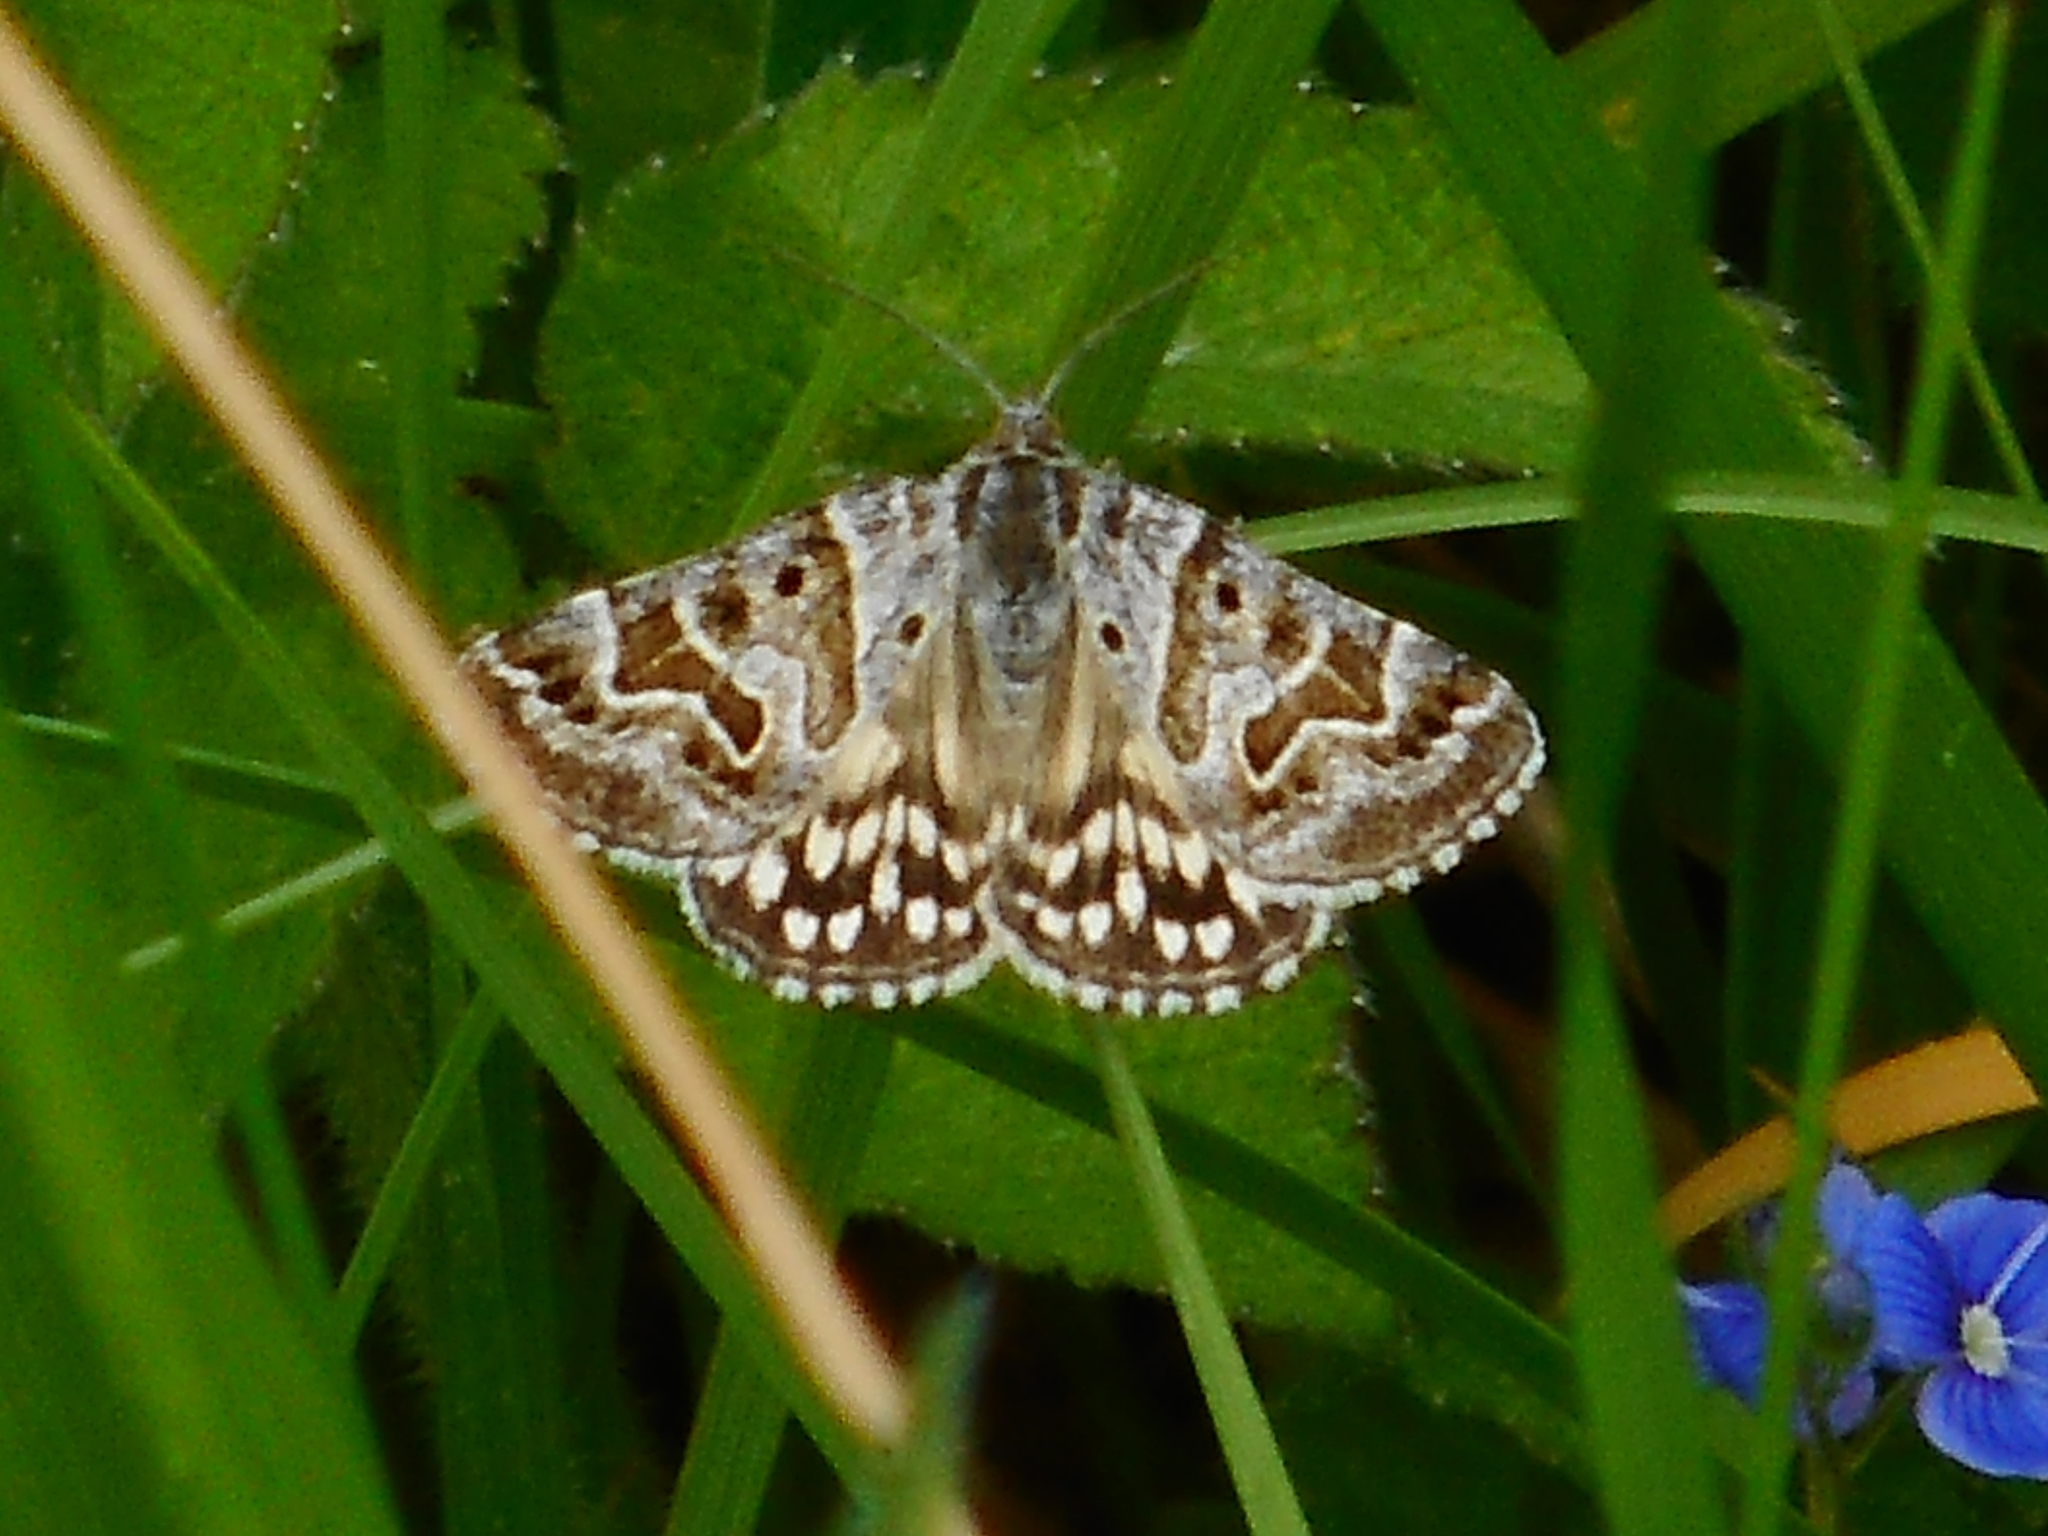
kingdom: Animalia
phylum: Arthropoda
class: Insecta
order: Lepidoptera
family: Erebidae
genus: Callistege
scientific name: Callistege mi
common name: Mother shipton
